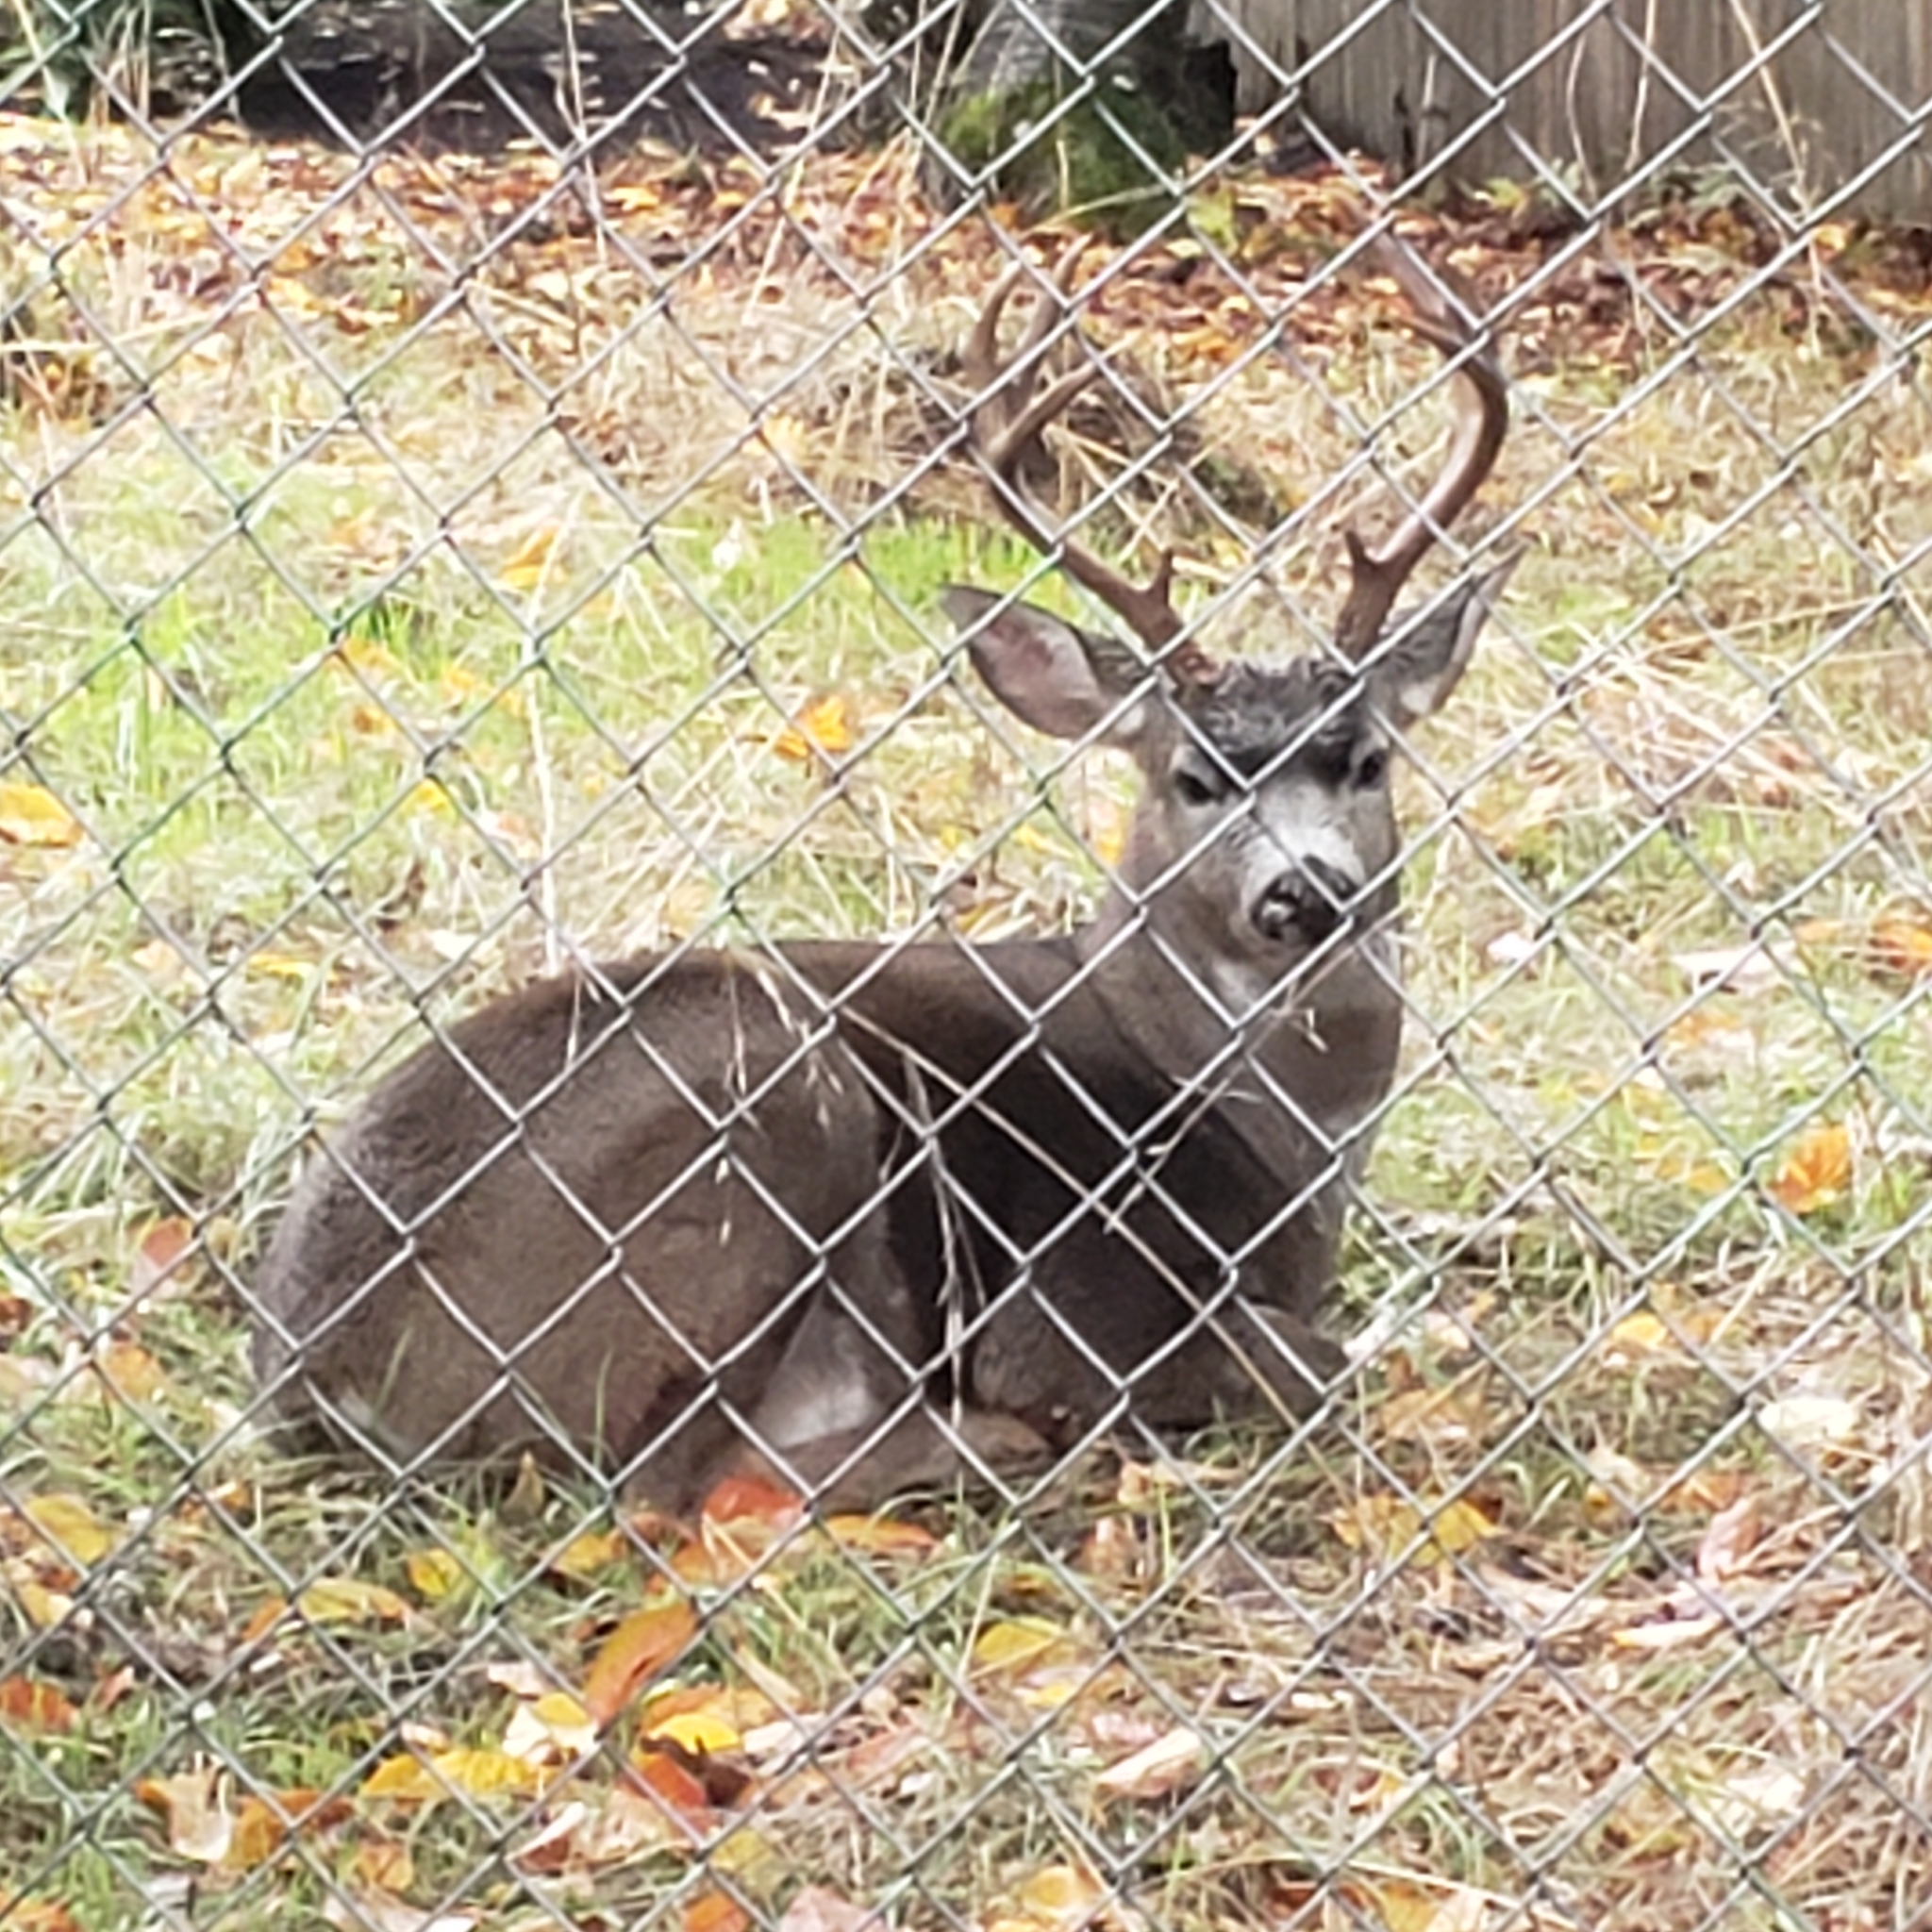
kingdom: Animalia
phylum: Chordata
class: Mammalia
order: Artiodactyla
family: Cervidae
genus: Odocoileus
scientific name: Odocoileus hemionus
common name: Mule deer
